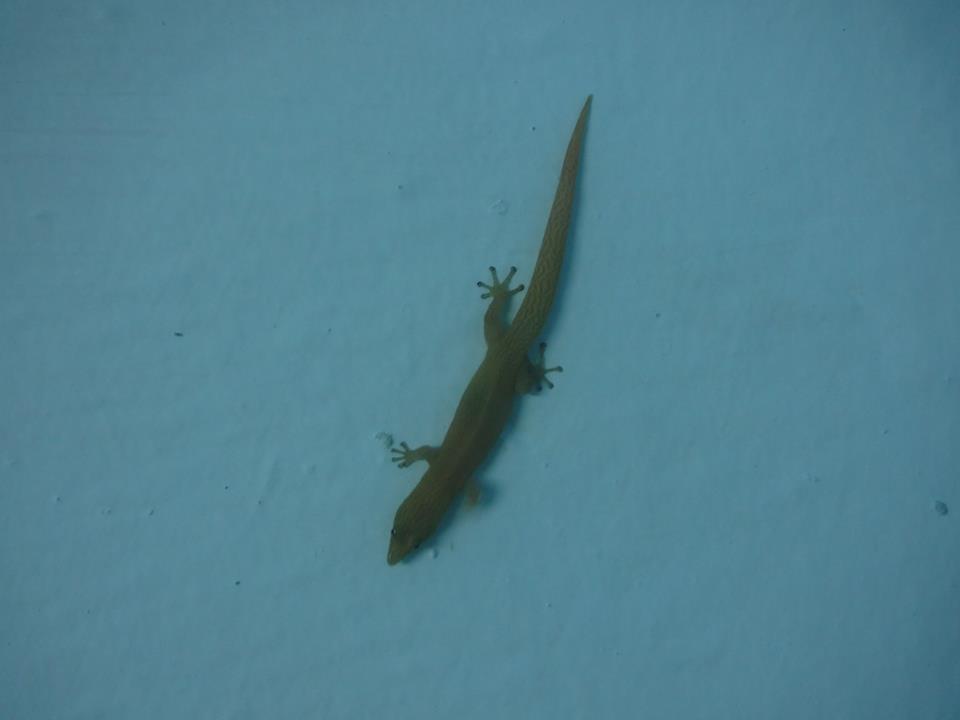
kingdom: Animalia
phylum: Chordata
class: Squamata
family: Sphaerodactylidae
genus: Sphaerodactylus
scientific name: Sphaerodactylus elegans
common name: Ashy gecko
